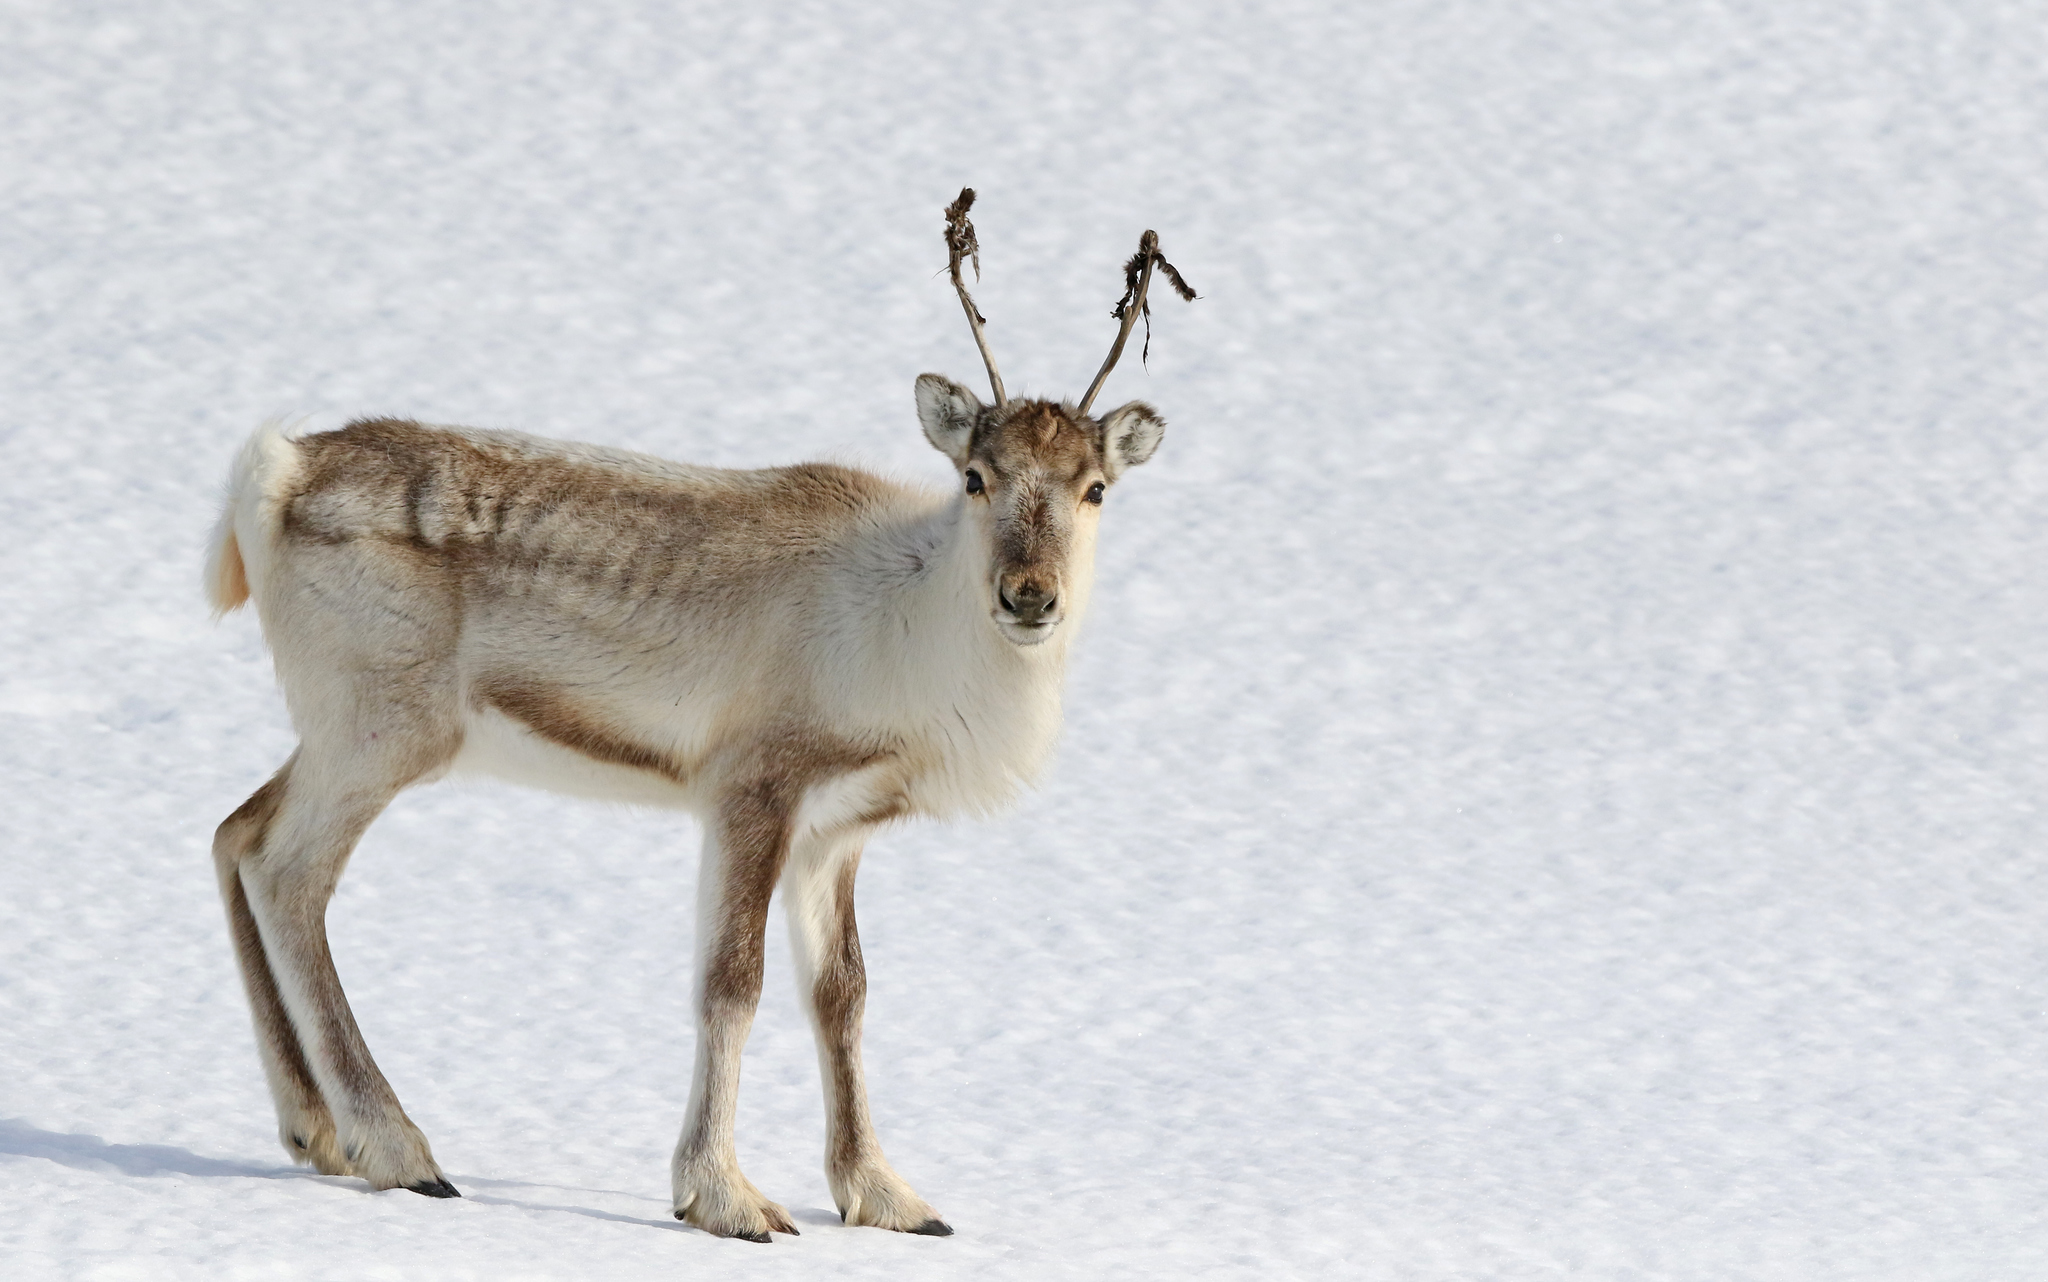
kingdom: Animalia
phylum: Chordata
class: Mammalia
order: Artiodactyla
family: Cervidae
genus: Rangifer
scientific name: Rangifer tarandus
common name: Reindeer
